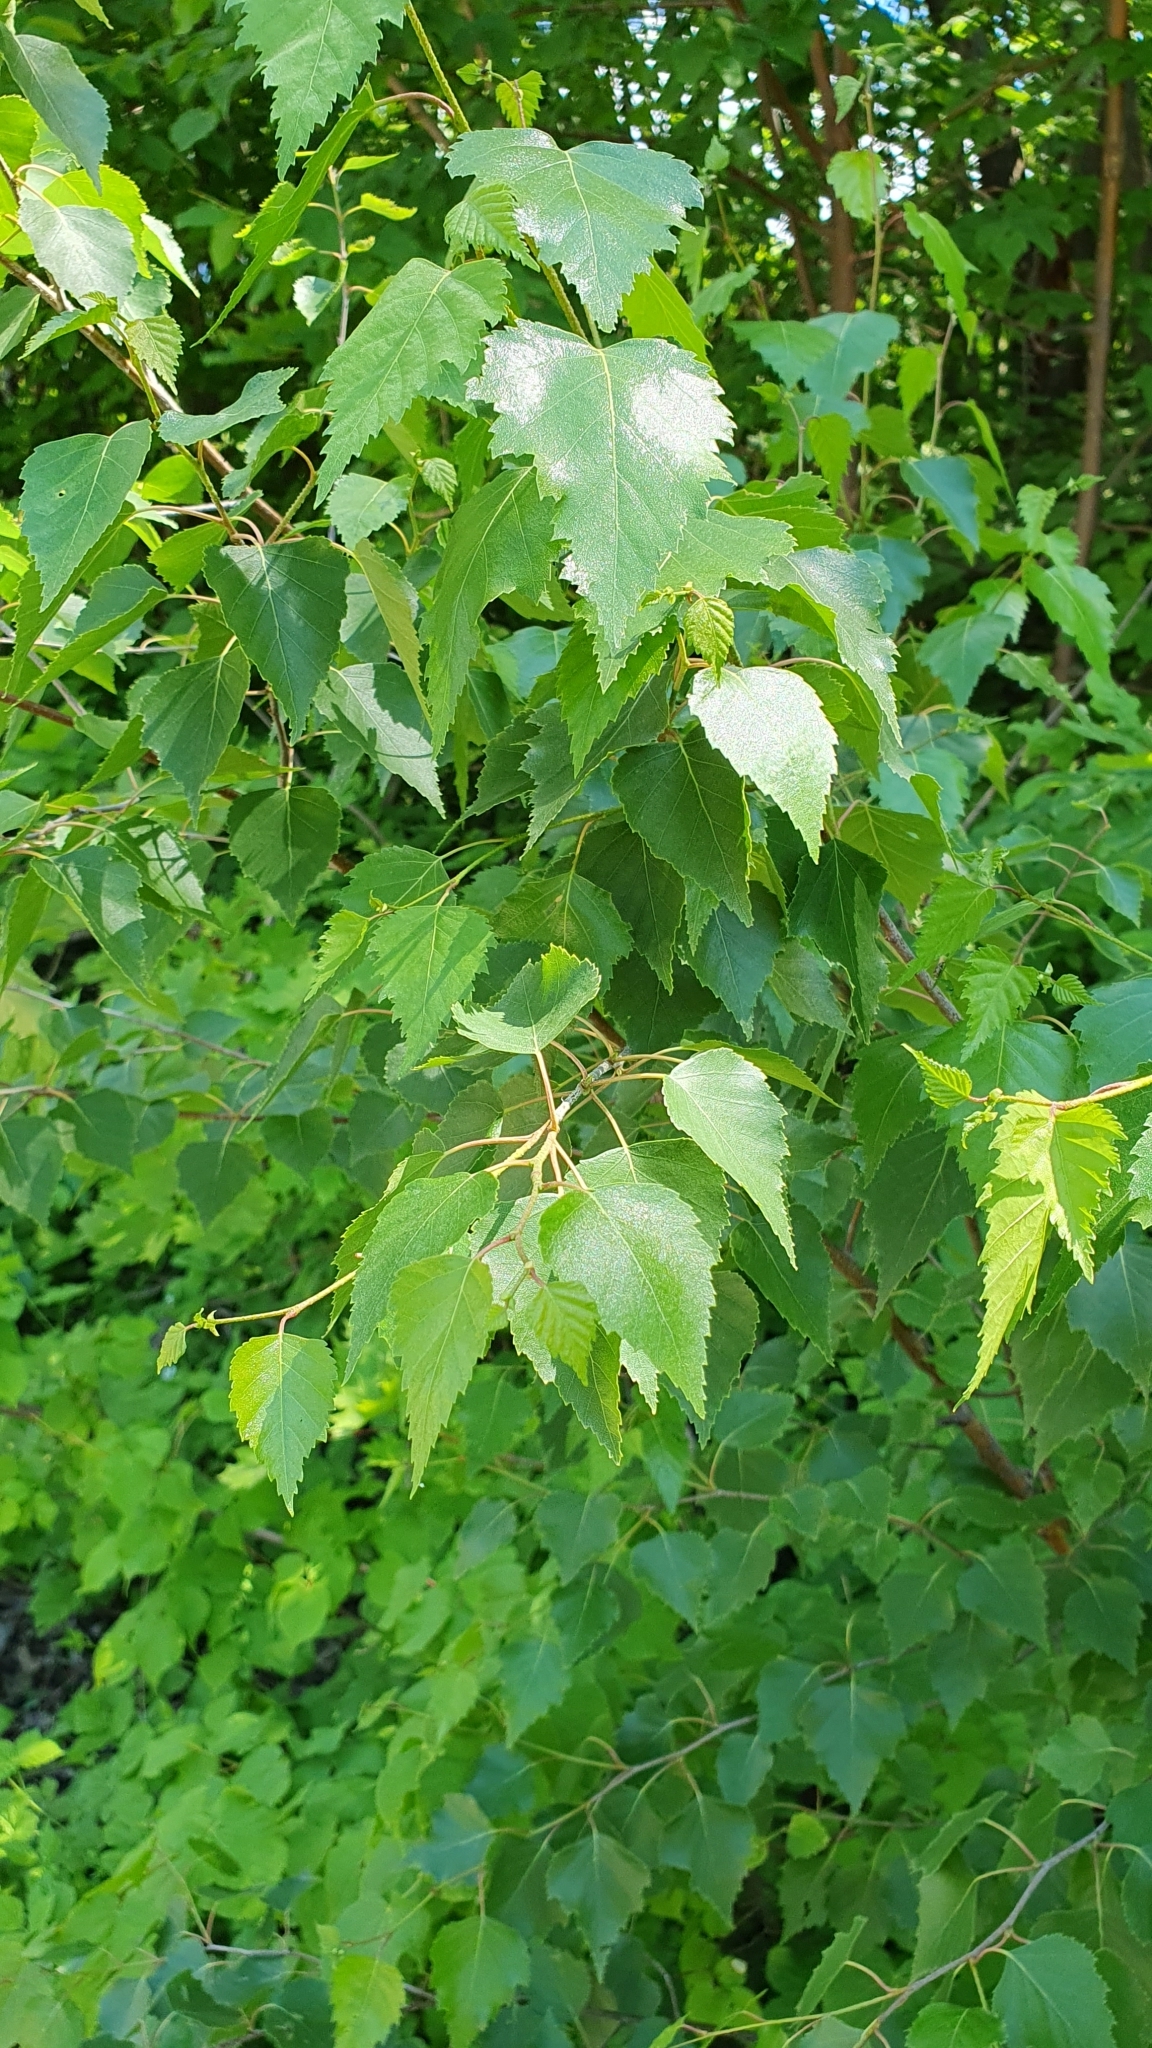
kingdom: Plantae
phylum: Tracheophyta
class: Magnoliopsida
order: Fagales
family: Betulaceae
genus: Betula
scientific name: Betula pendula
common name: Silver birch
